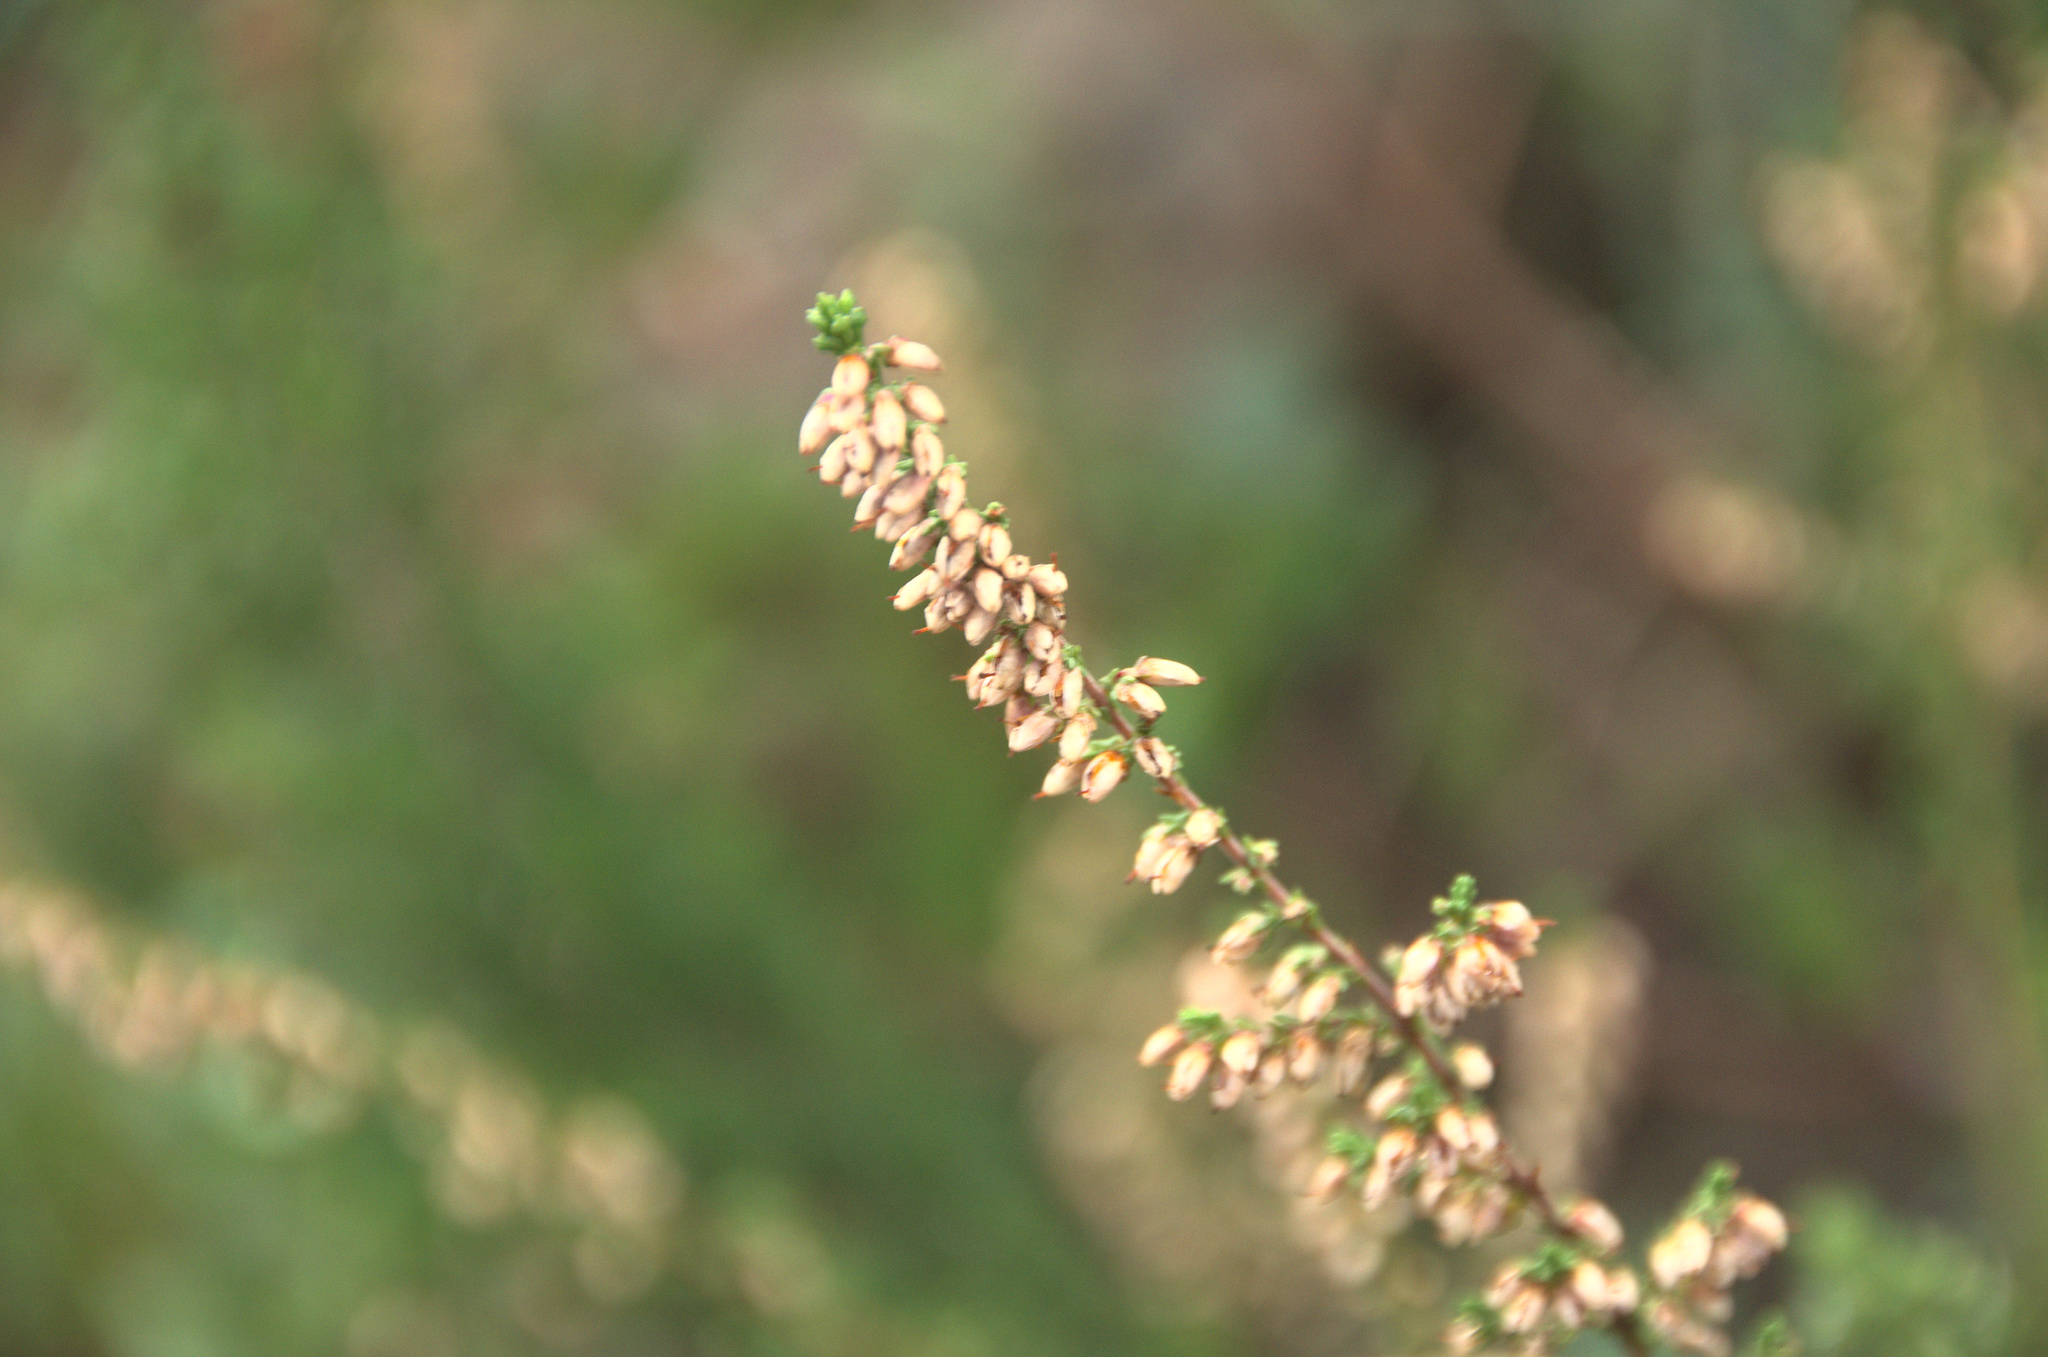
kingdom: Plantae
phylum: Tracheophyta
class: Magnoliopsida
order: Ericales
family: Ericaceae
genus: Calluna
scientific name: Calluna vulgaris
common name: Heather
